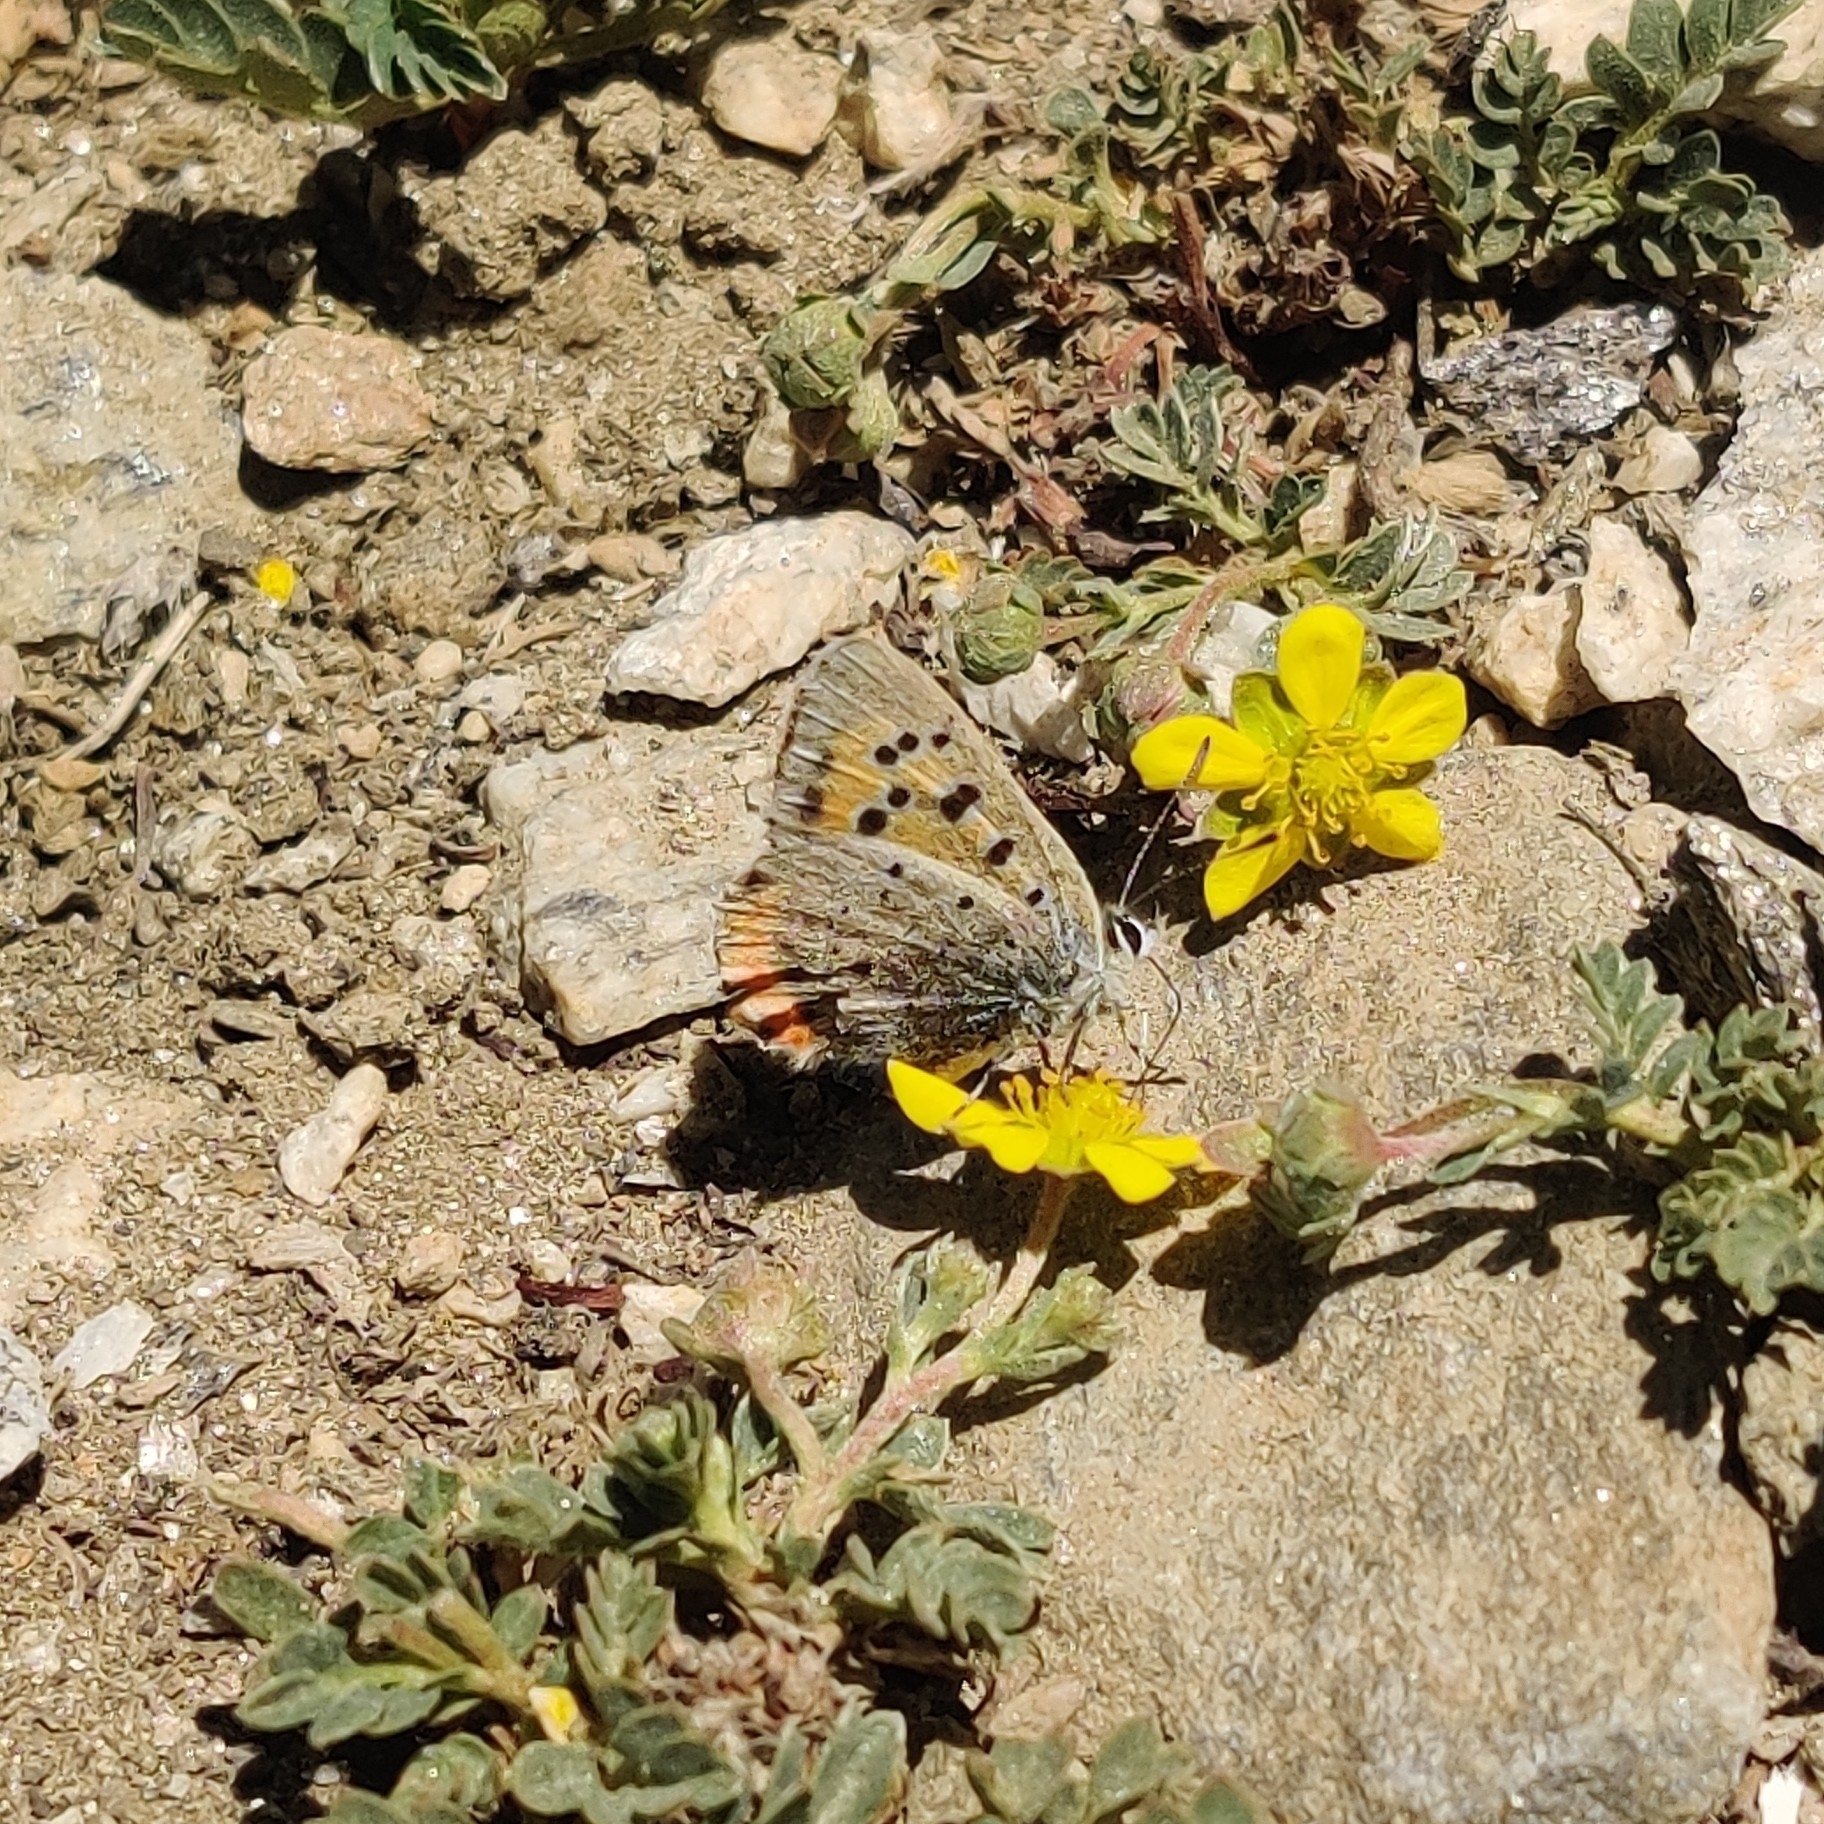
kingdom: Animalia
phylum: Arthropoda
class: Insecta
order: Lepidoptera
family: Lycaenidae
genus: Lycaena
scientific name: Lycaena phlaeas
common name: Small copper
